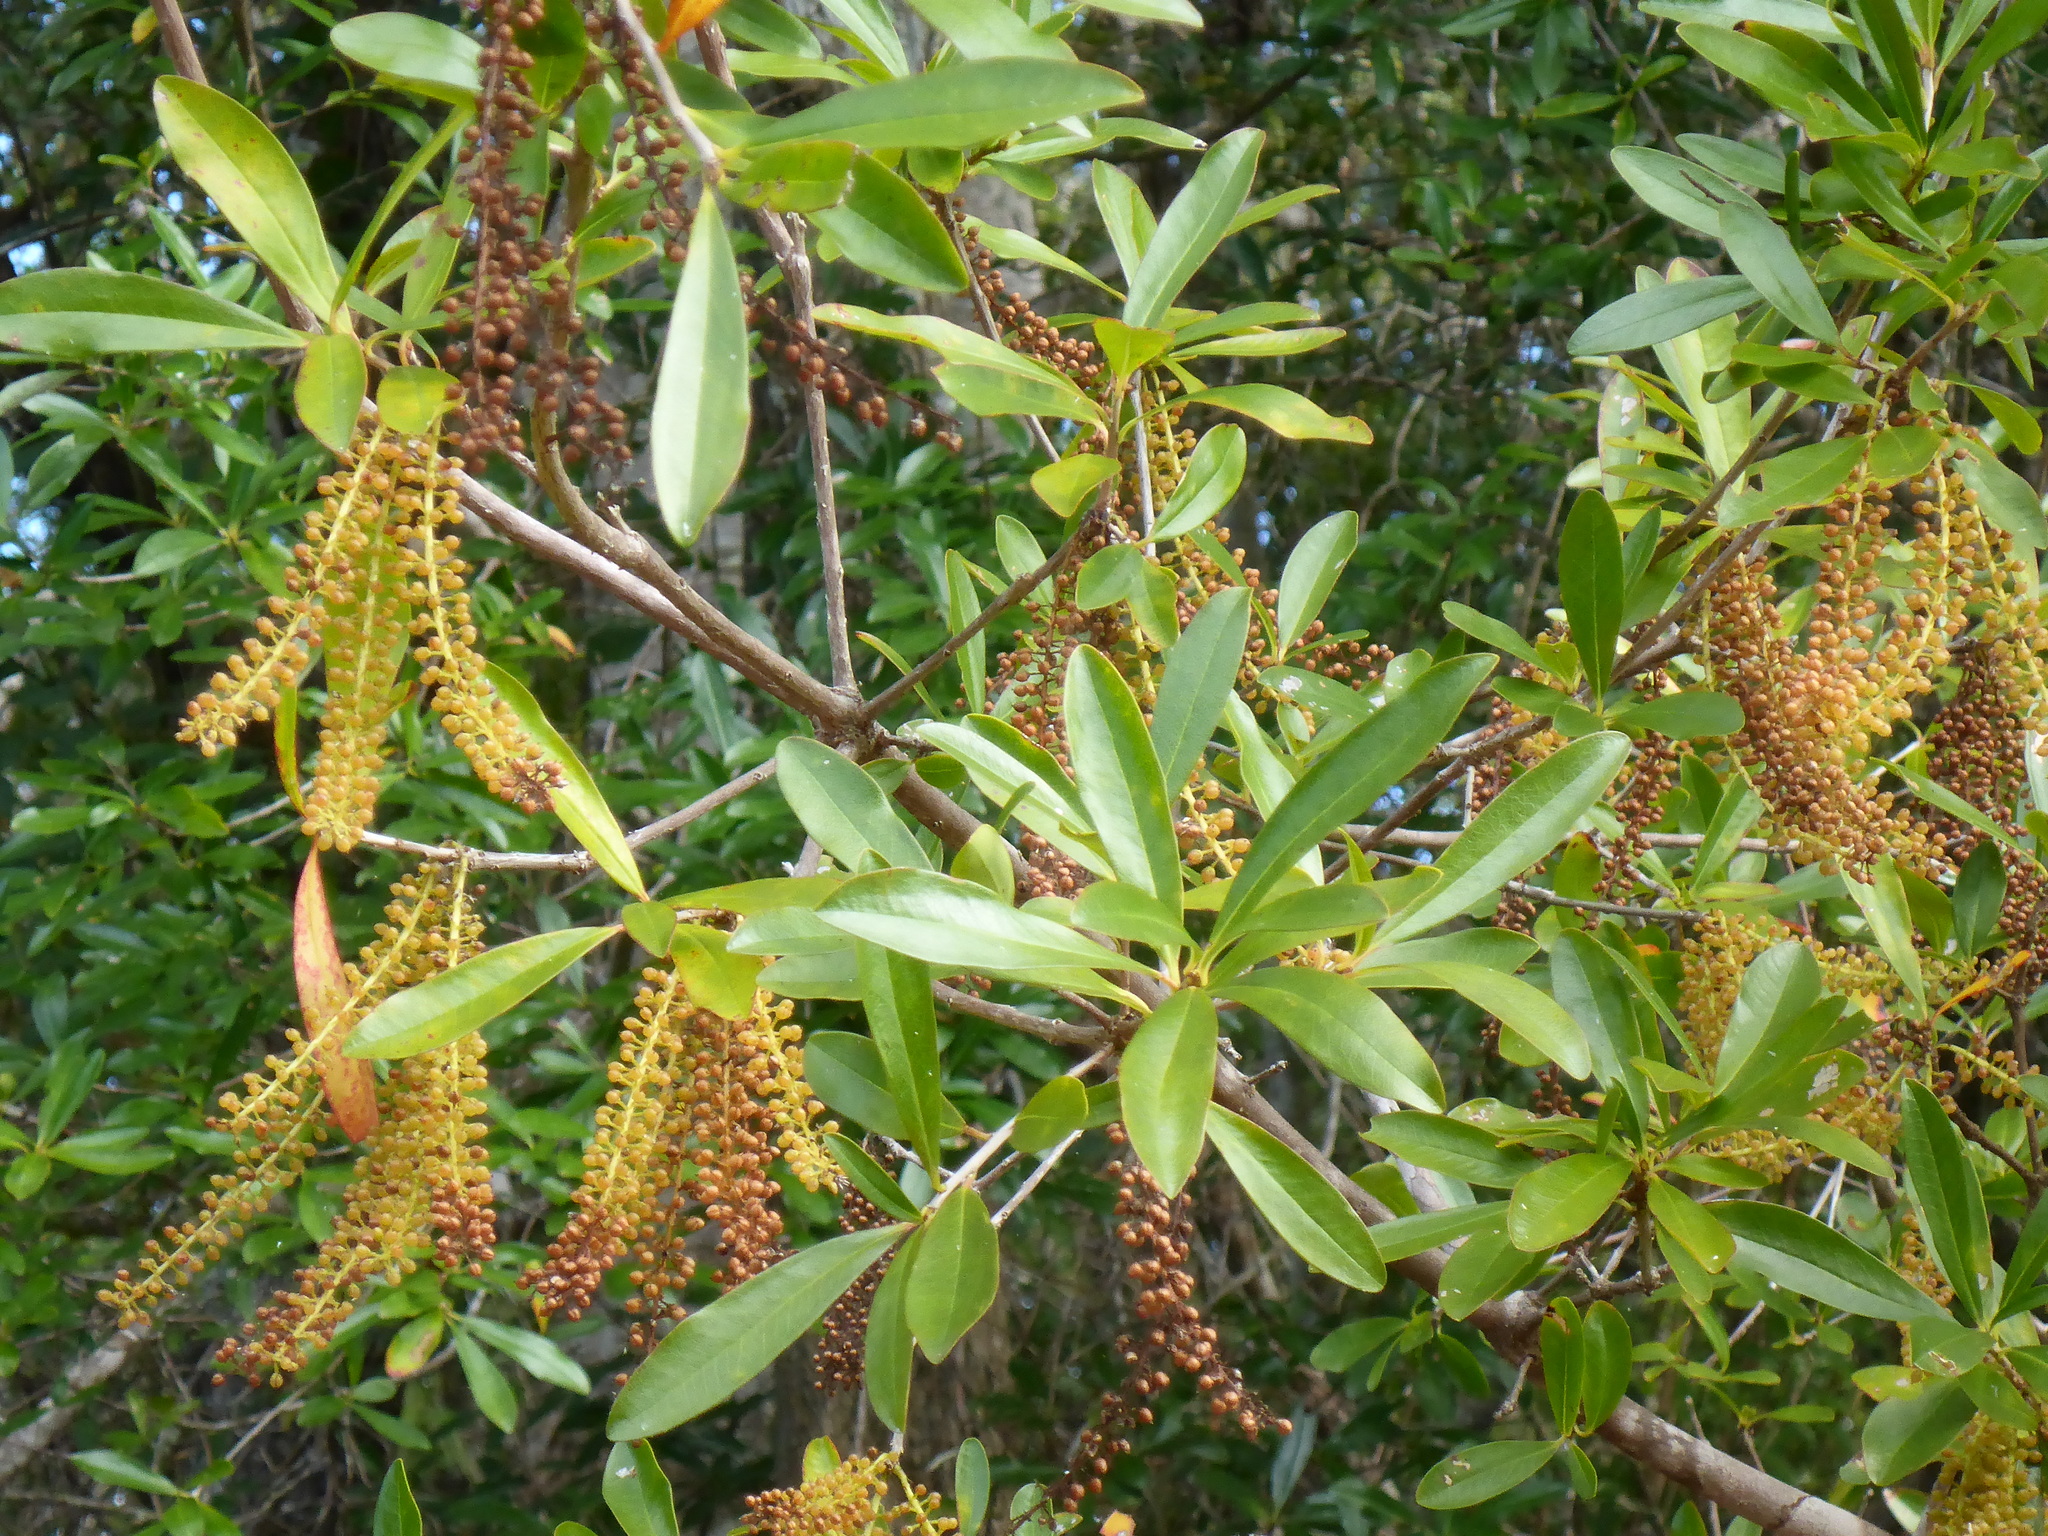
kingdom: Plantae
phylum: Tracheophyta
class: Magnoliopsida
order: Ericales
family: Cyrillaceae
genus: Cyrilla
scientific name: Cyrilla racemiflora
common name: Black titi
